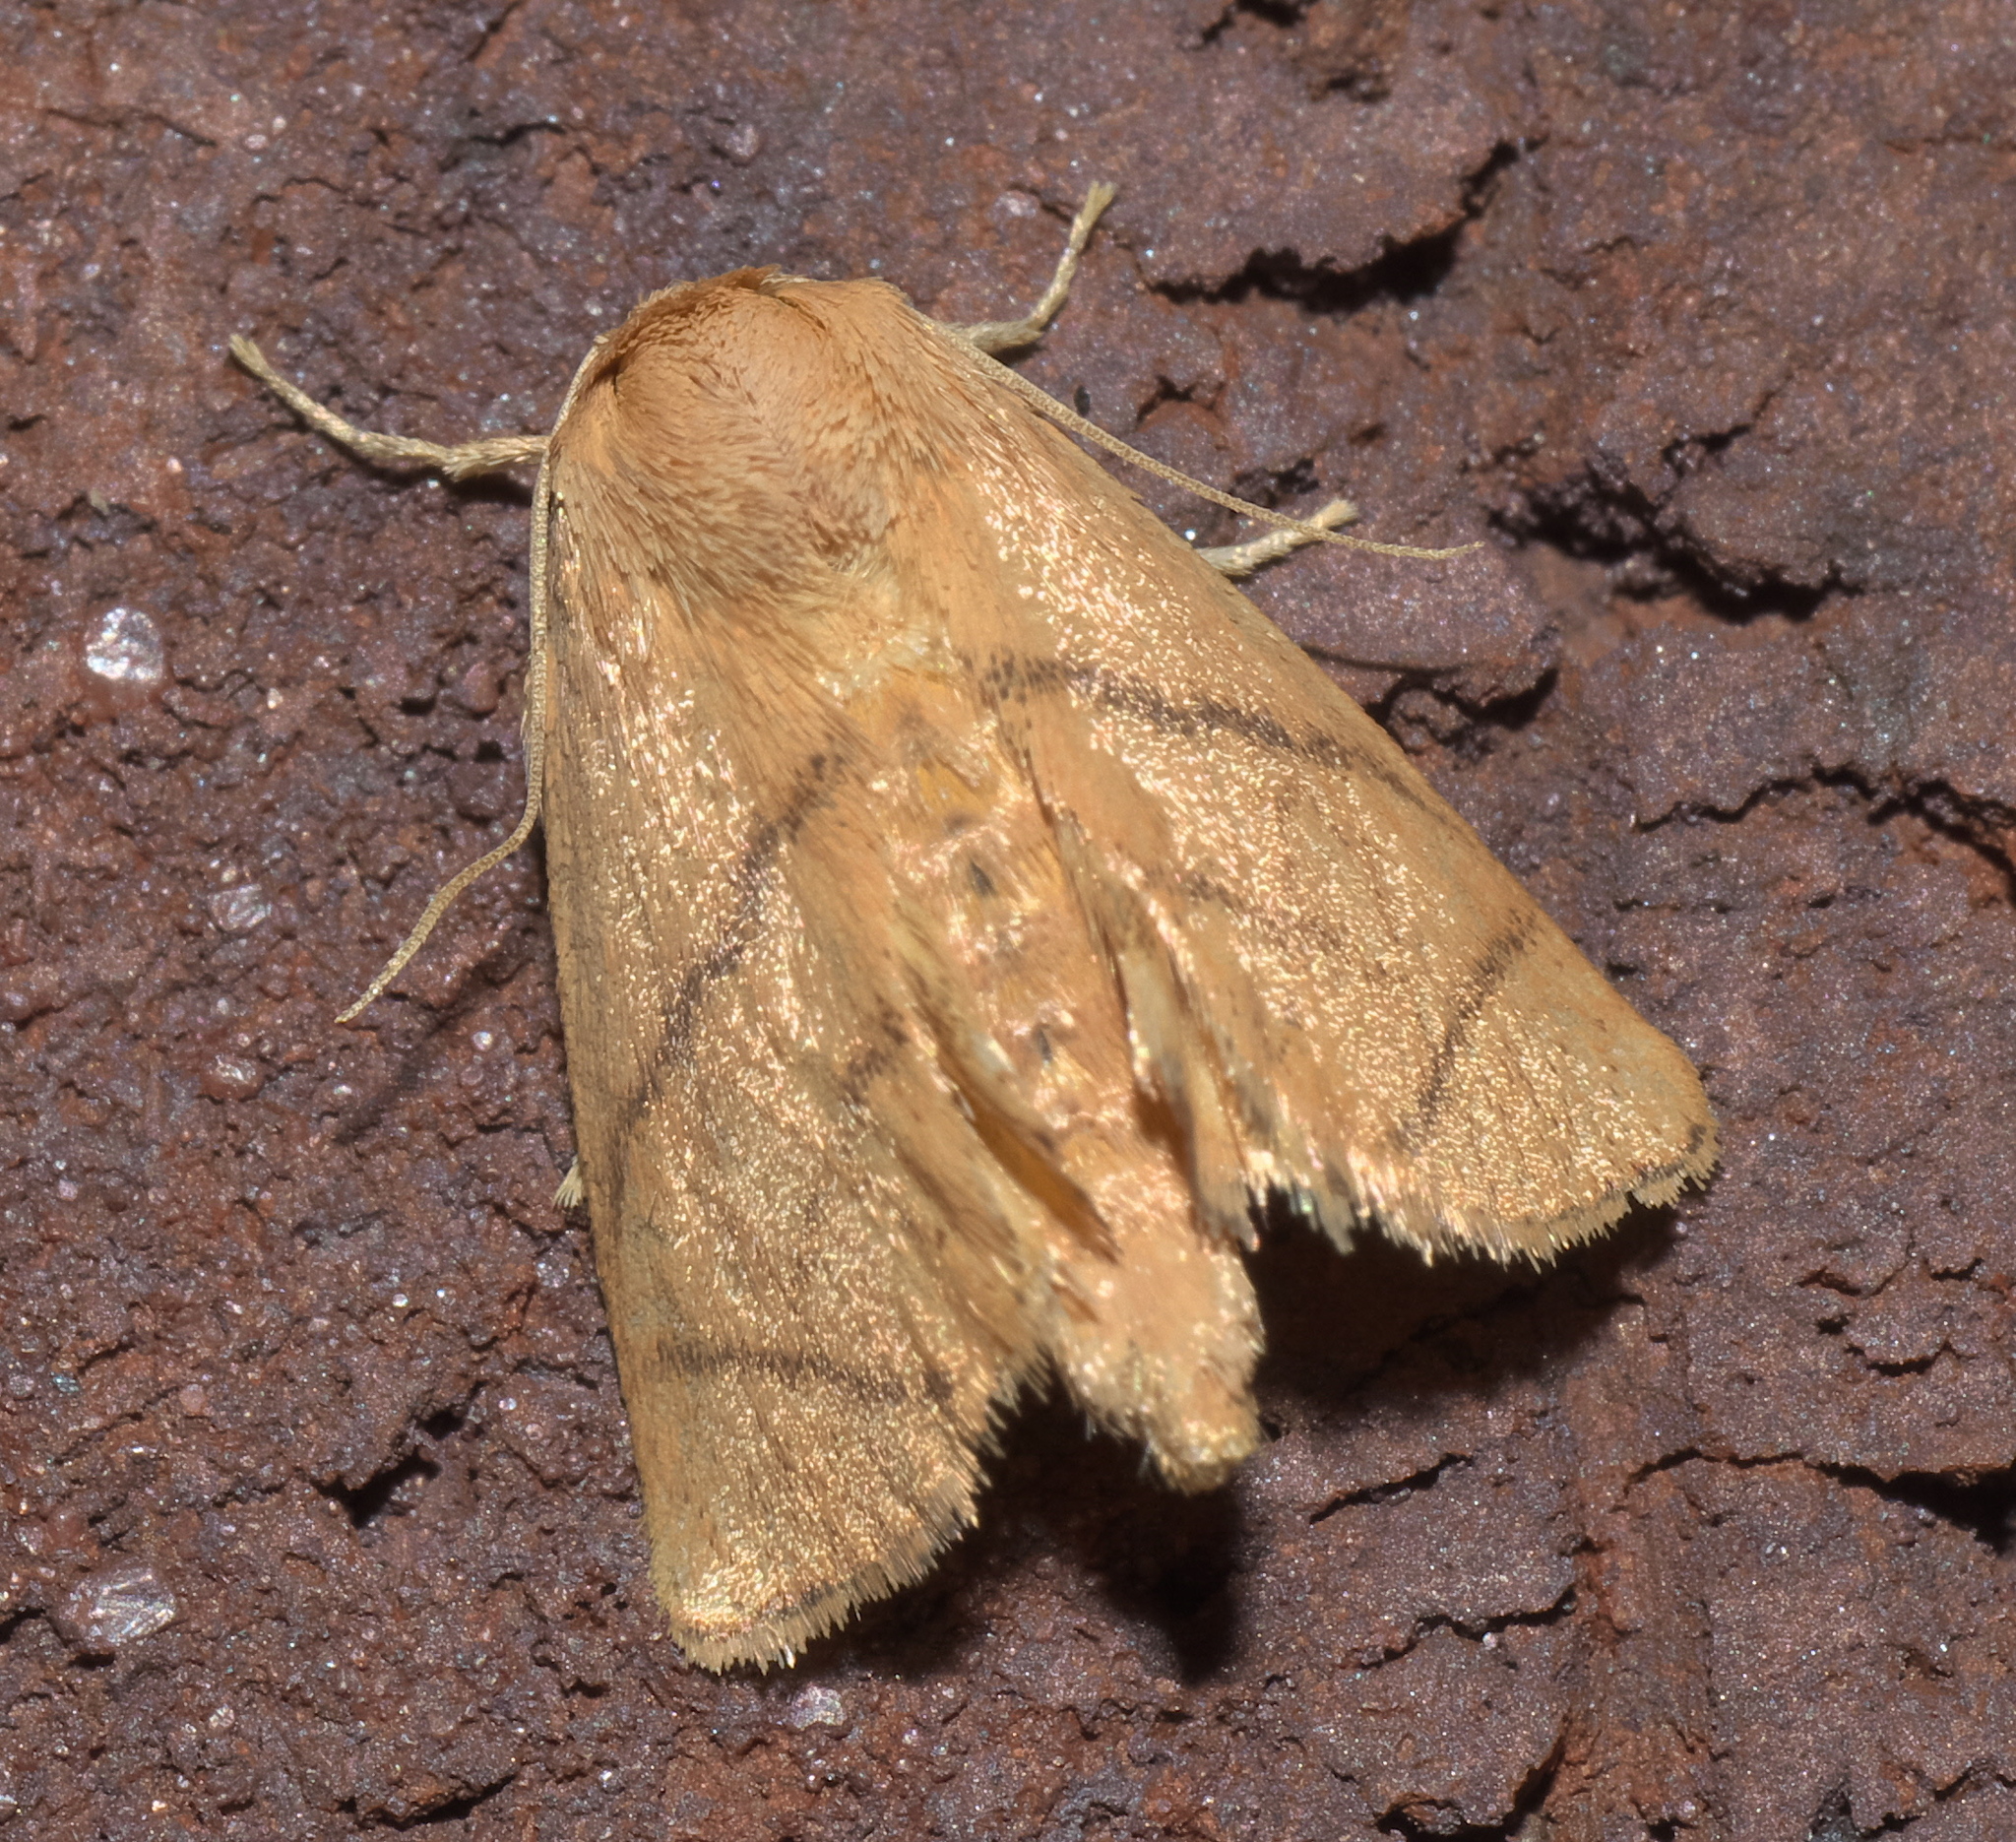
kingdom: Animalia
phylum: Arthropoda
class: Insecta
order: Lepidoptera
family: Limacodidae
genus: Apoda
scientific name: Apoda y-inversa
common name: Yellow-collared slug moth
